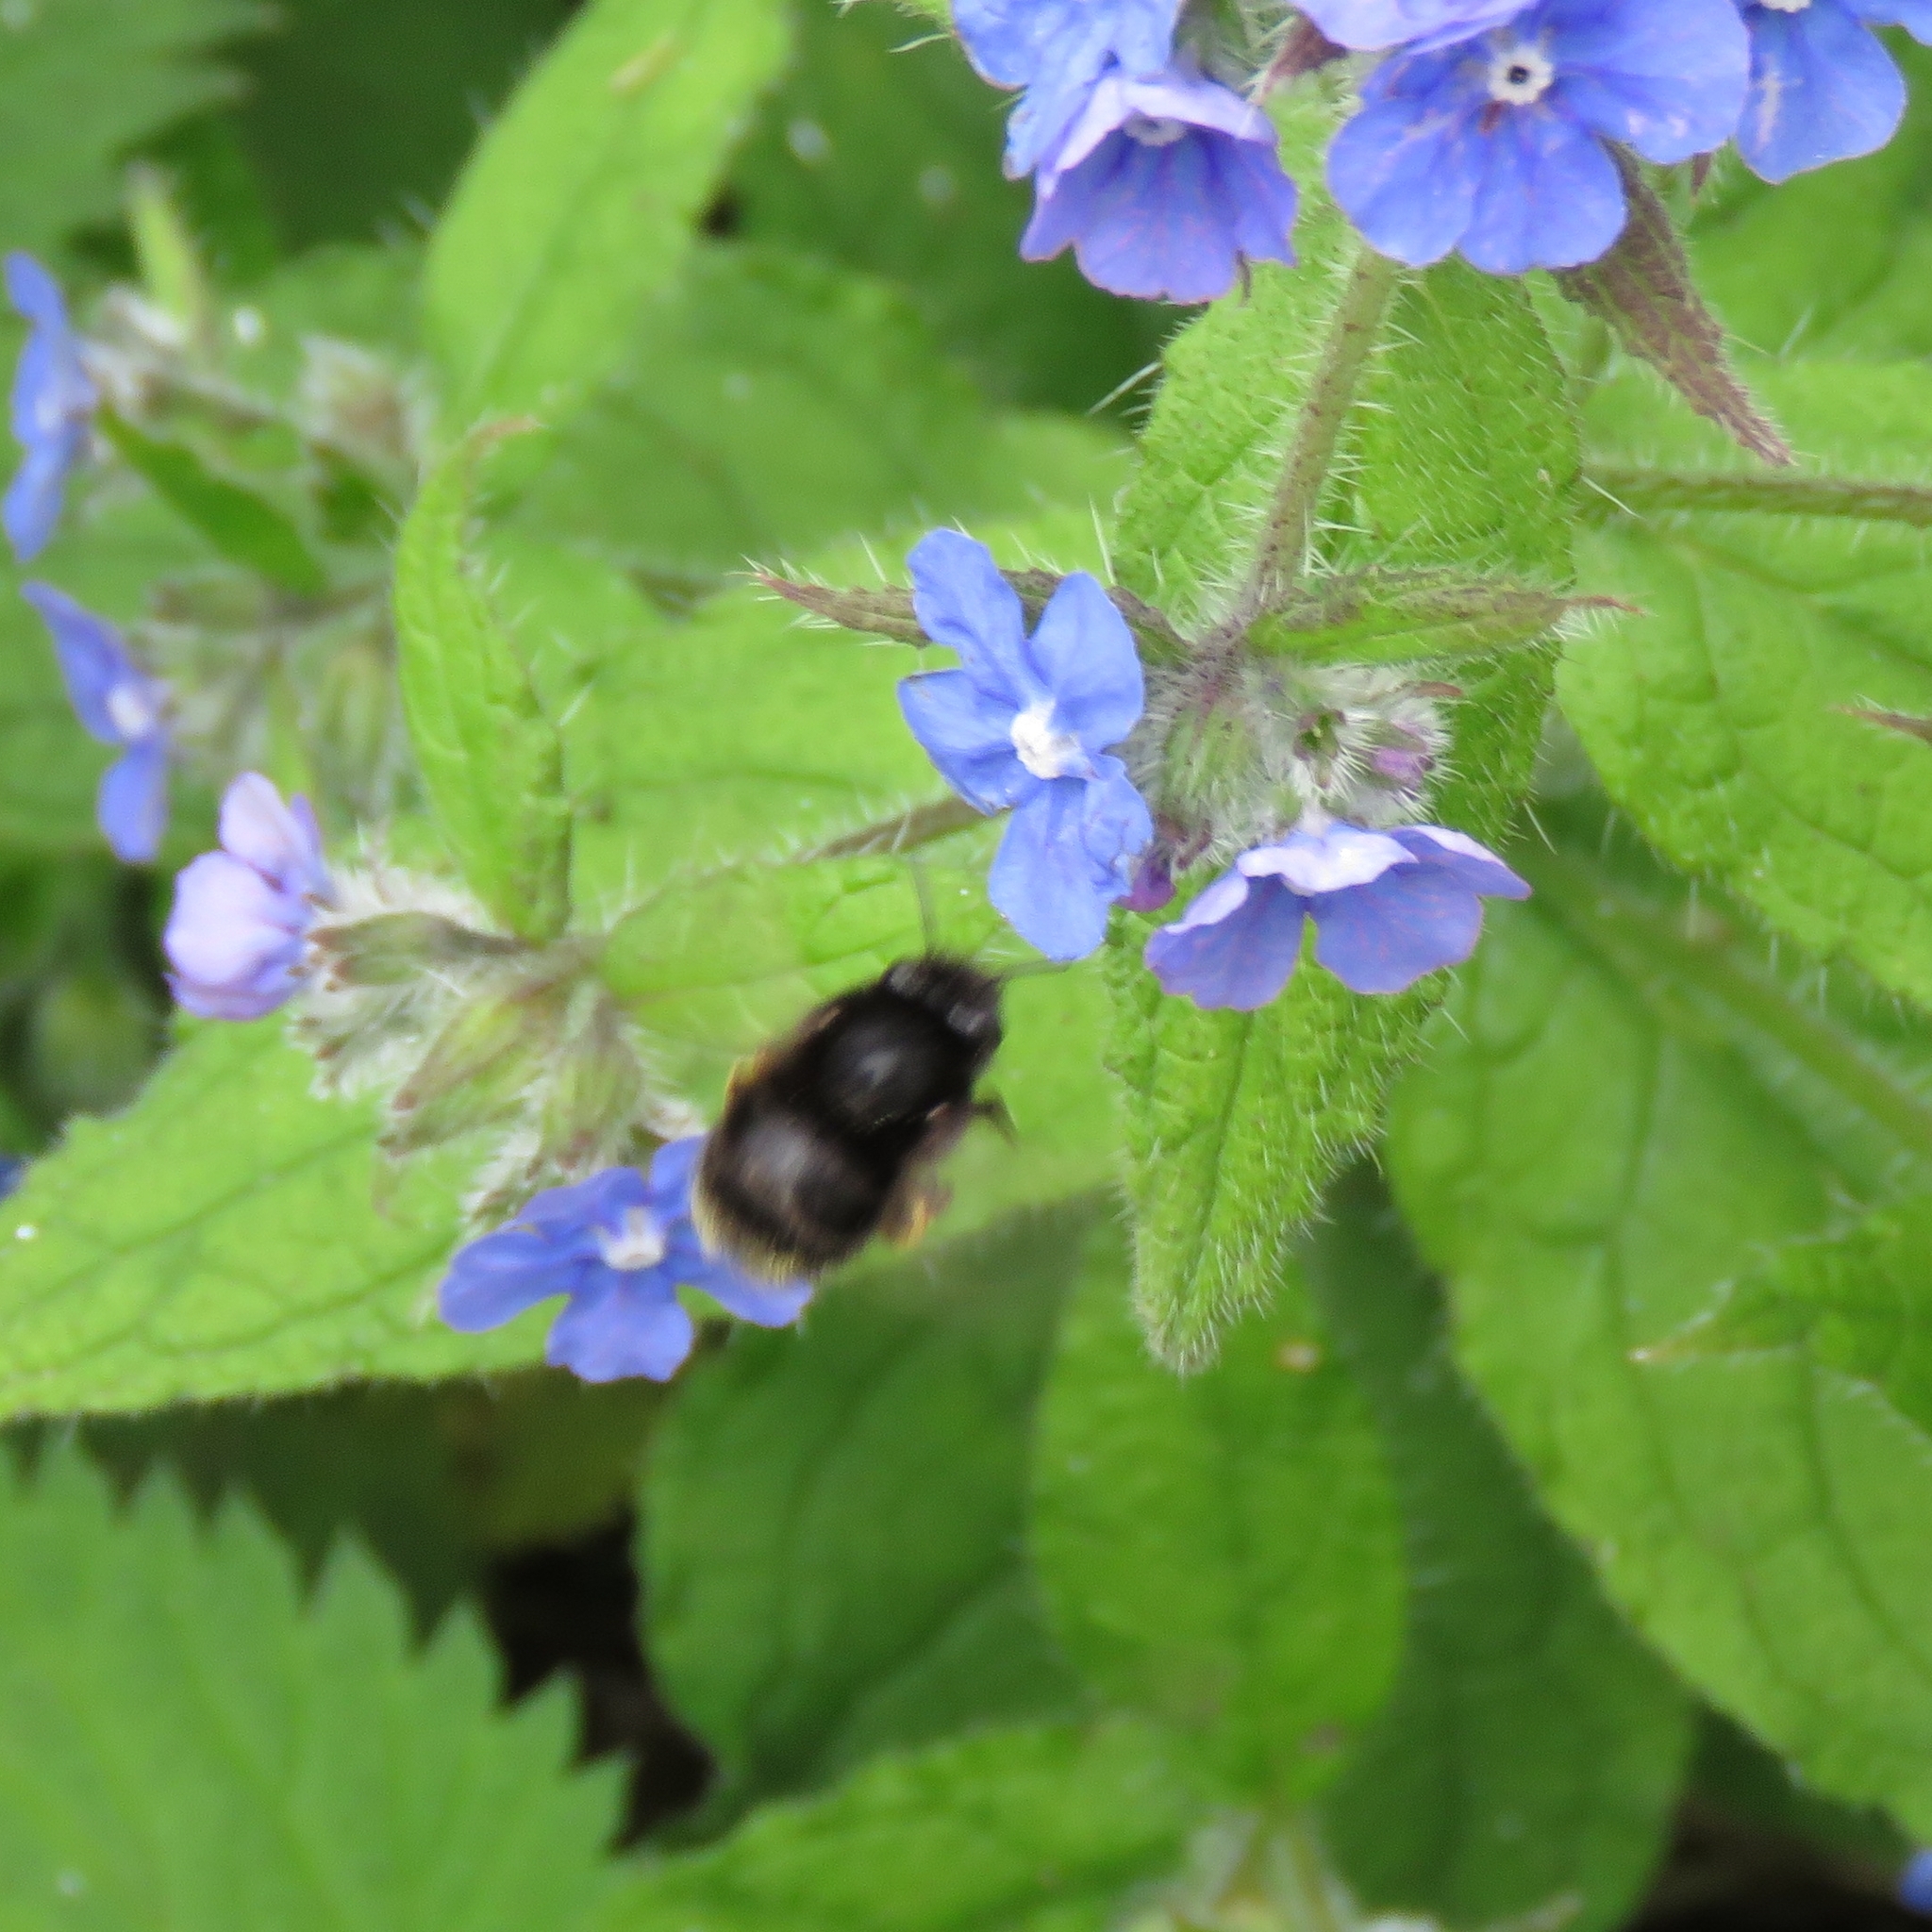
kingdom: Animalia
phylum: Arthropoda
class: Insecta
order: Hymenoptera
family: Apidae
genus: Anthophora
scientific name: Anthophora plumipes
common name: Hairy-footed flower bee
